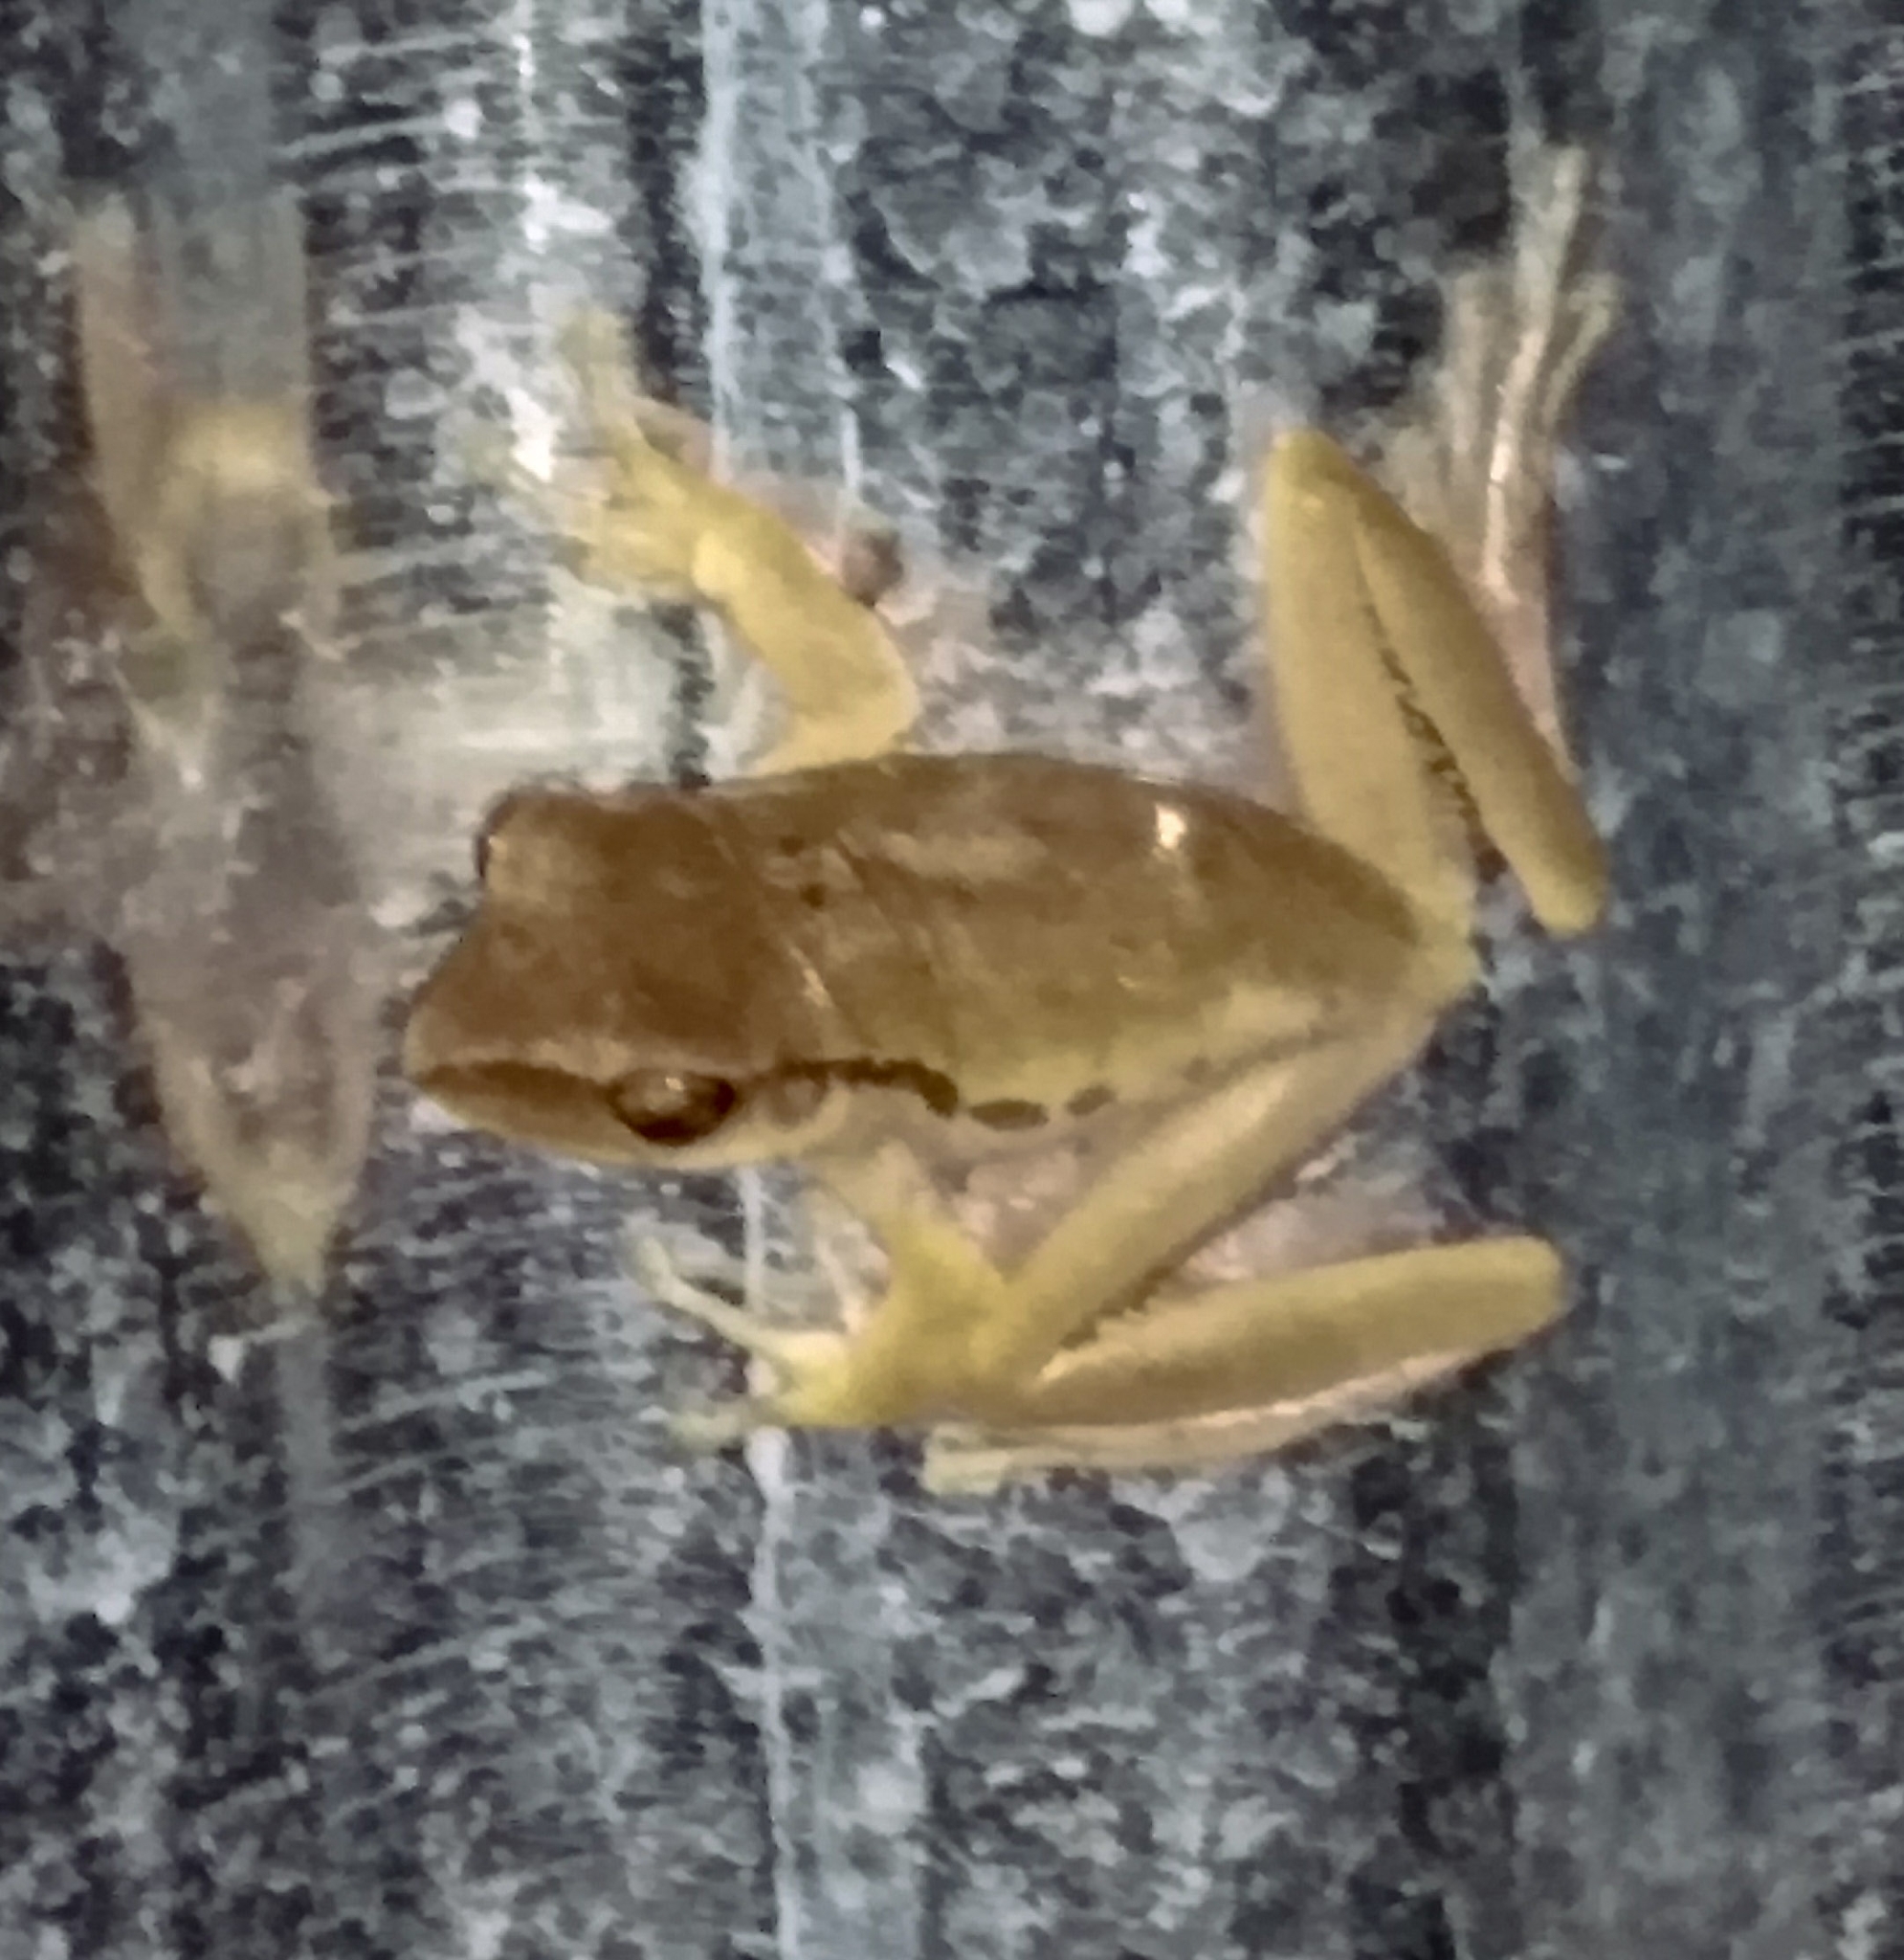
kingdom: Animalia
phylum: Chordata
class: Amphibia
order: Anura
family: Rhacophoridae
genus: Polypedates
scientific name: Polypedates megacephalus
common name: Hong kong whipping frog
